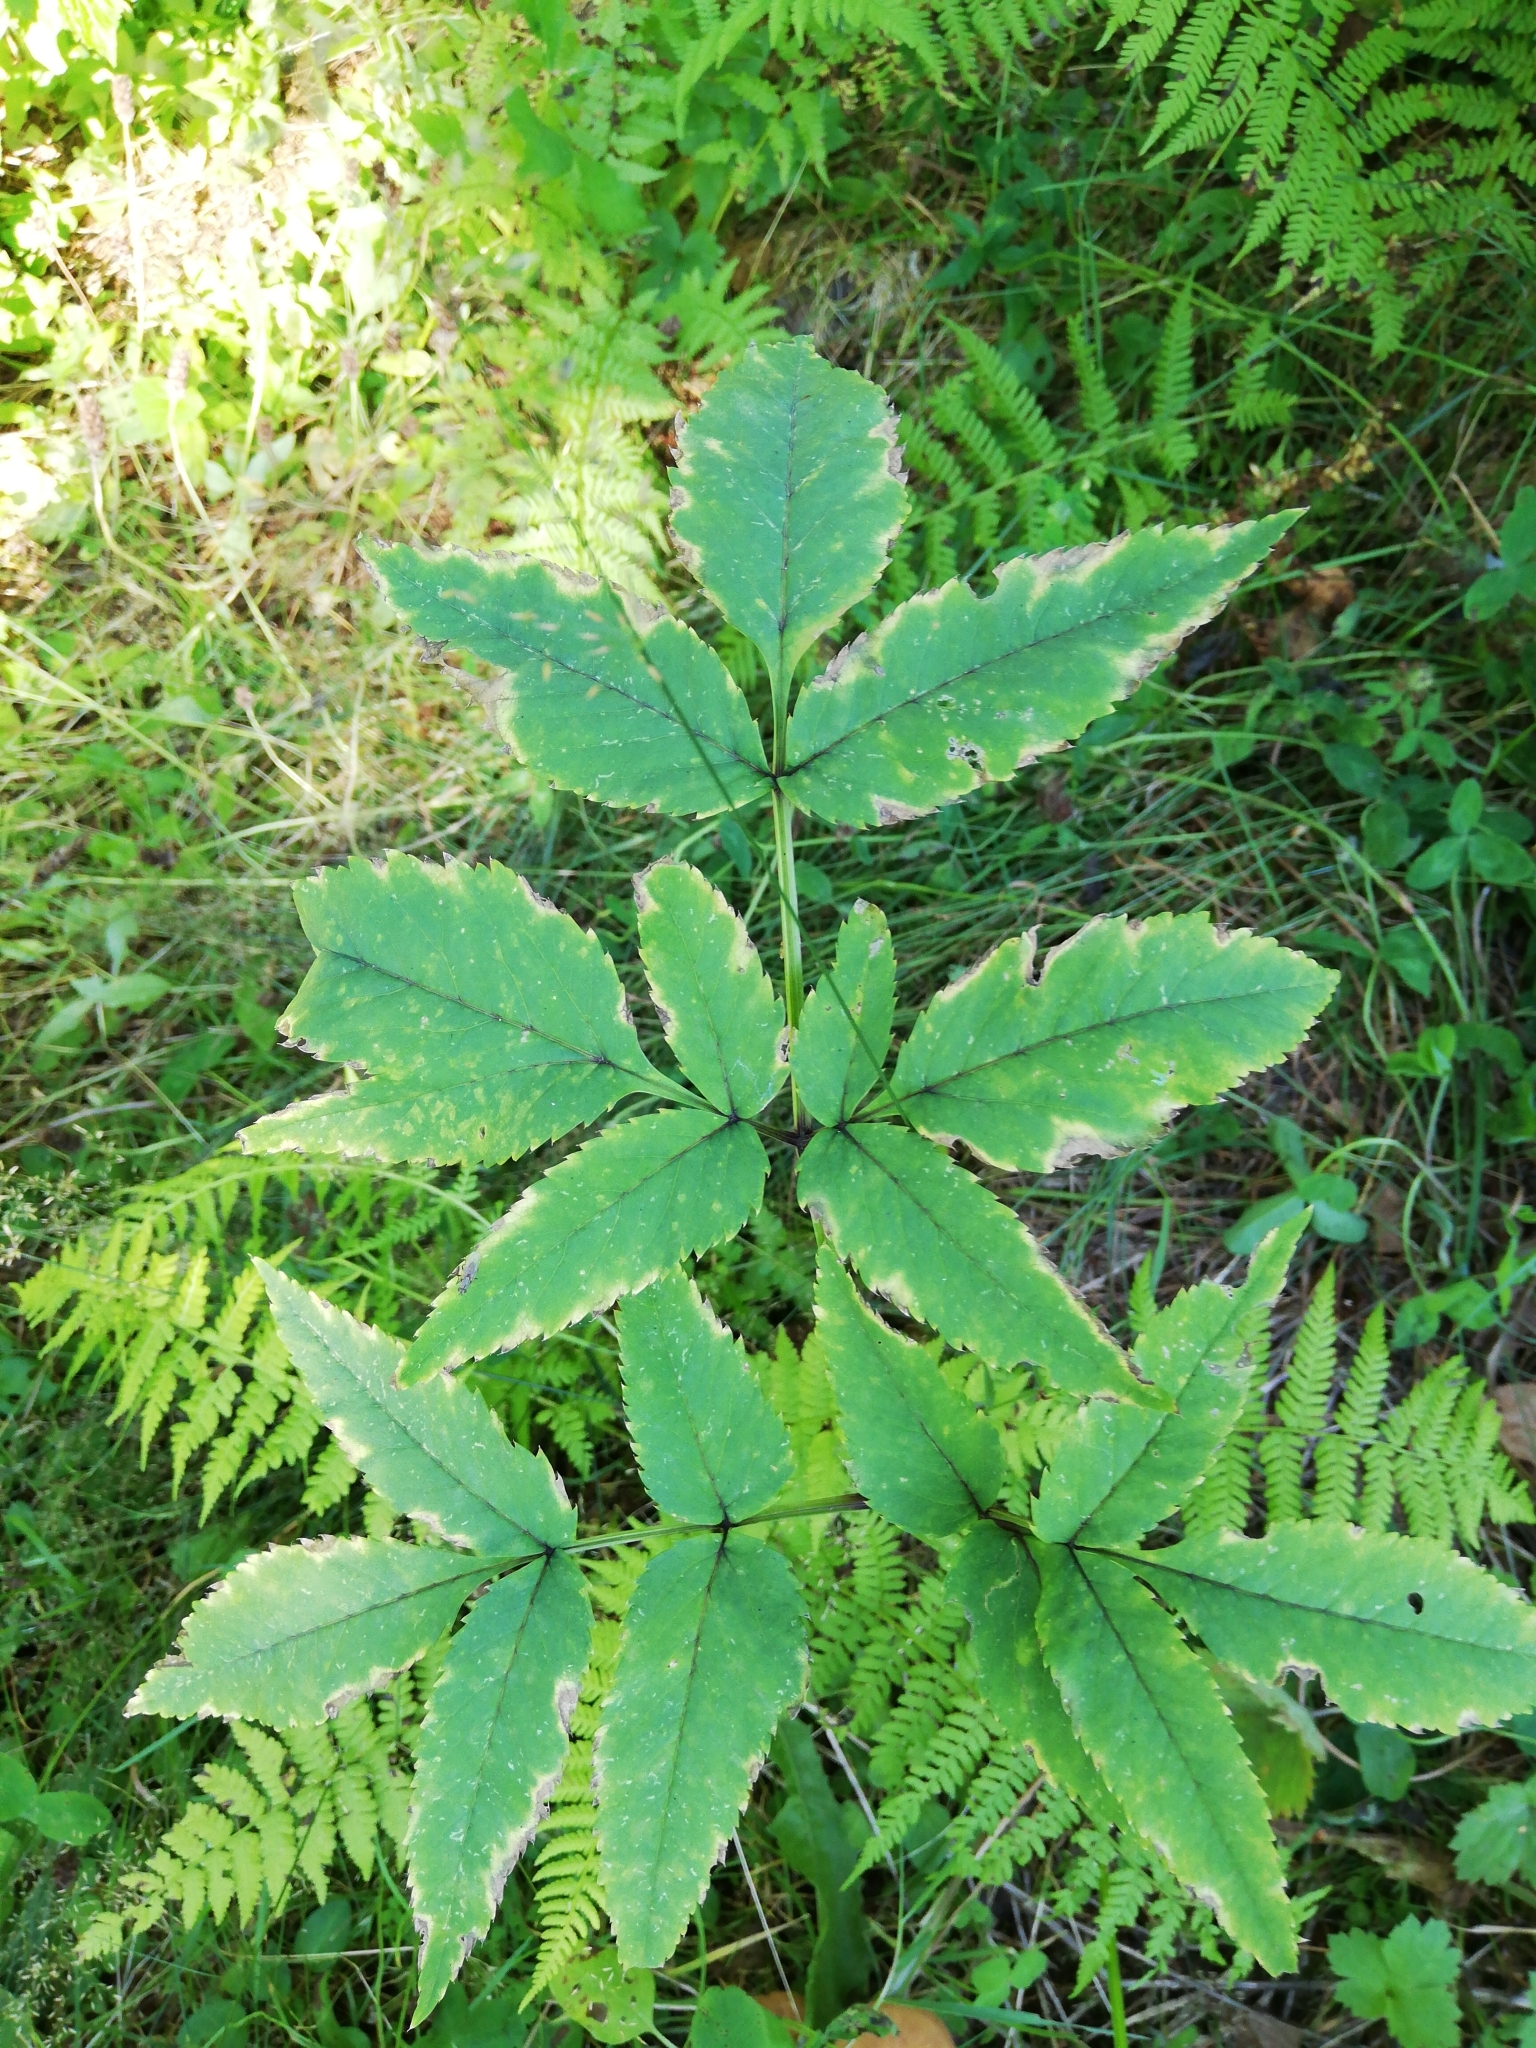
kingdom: Plantae
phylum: Tracheophyta
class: Magnoliopsida
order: Apiales
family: Apiaceae
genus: Angelica
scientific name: Angelica sylvestris
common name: Wild angelica
